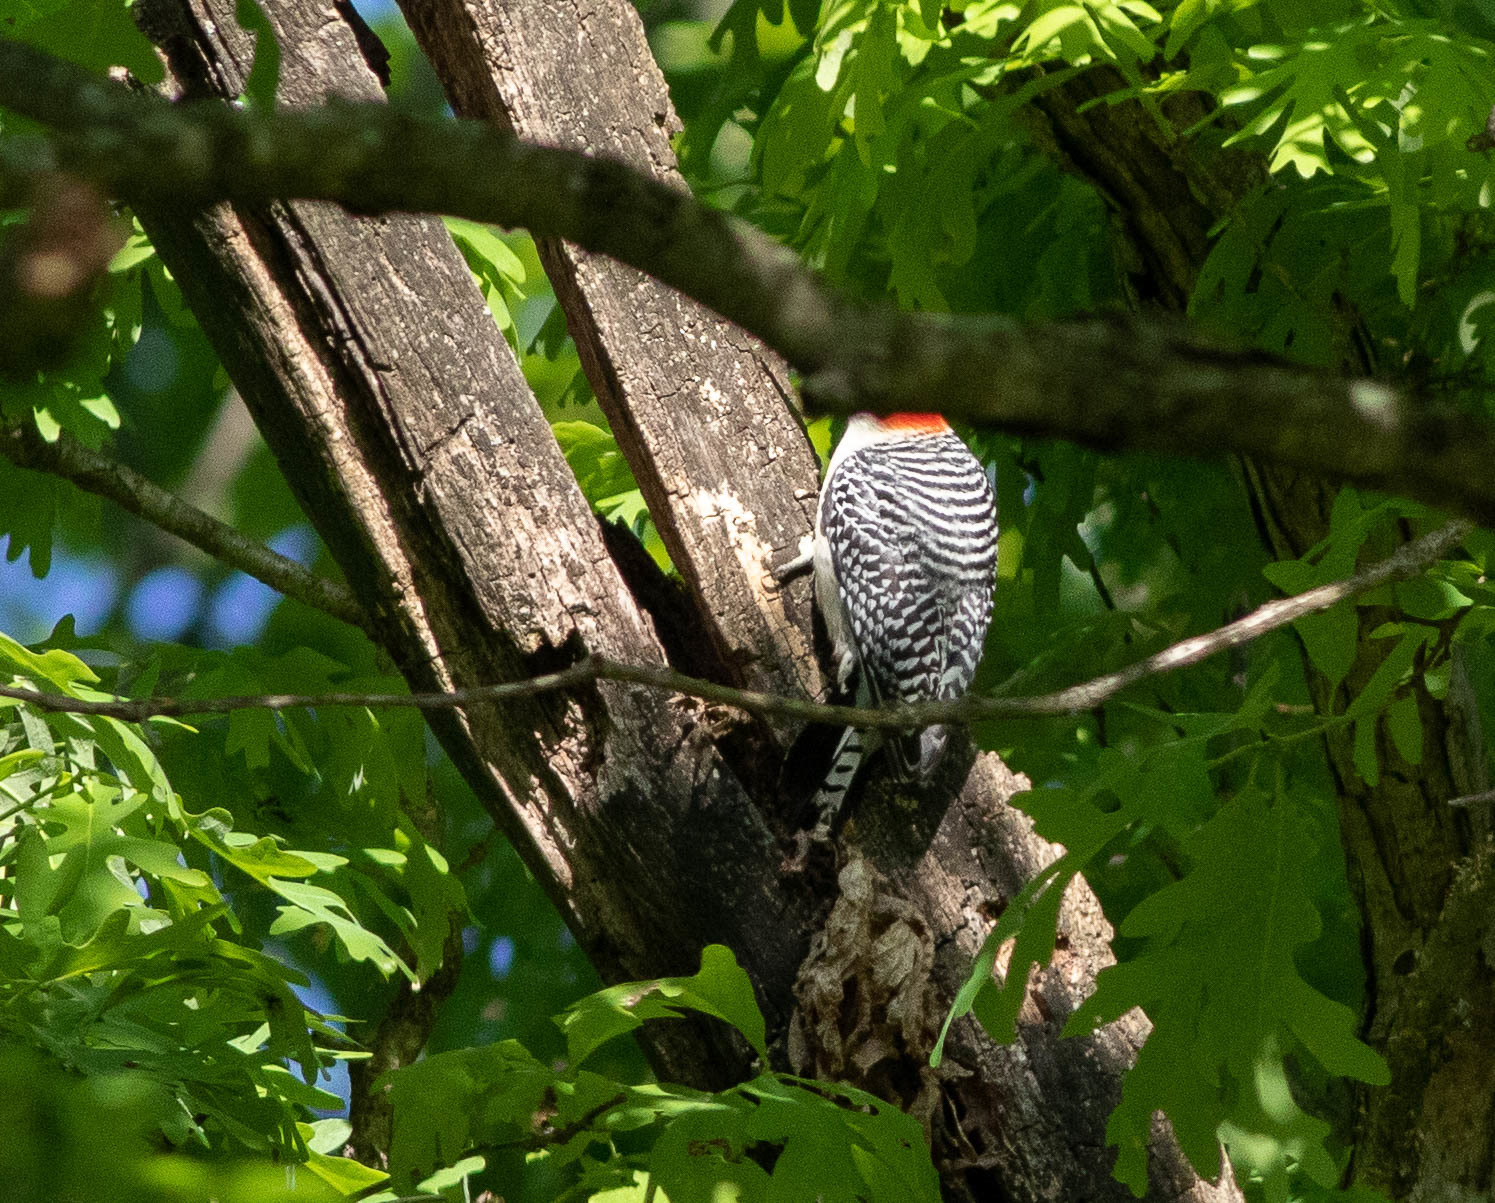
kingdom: Animalia
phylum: Chordata
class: Aves
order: Piciformes
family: Picidae
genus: Melanerpes
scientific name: Melanerpes carolinus
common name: Red-bellied woodpecker
